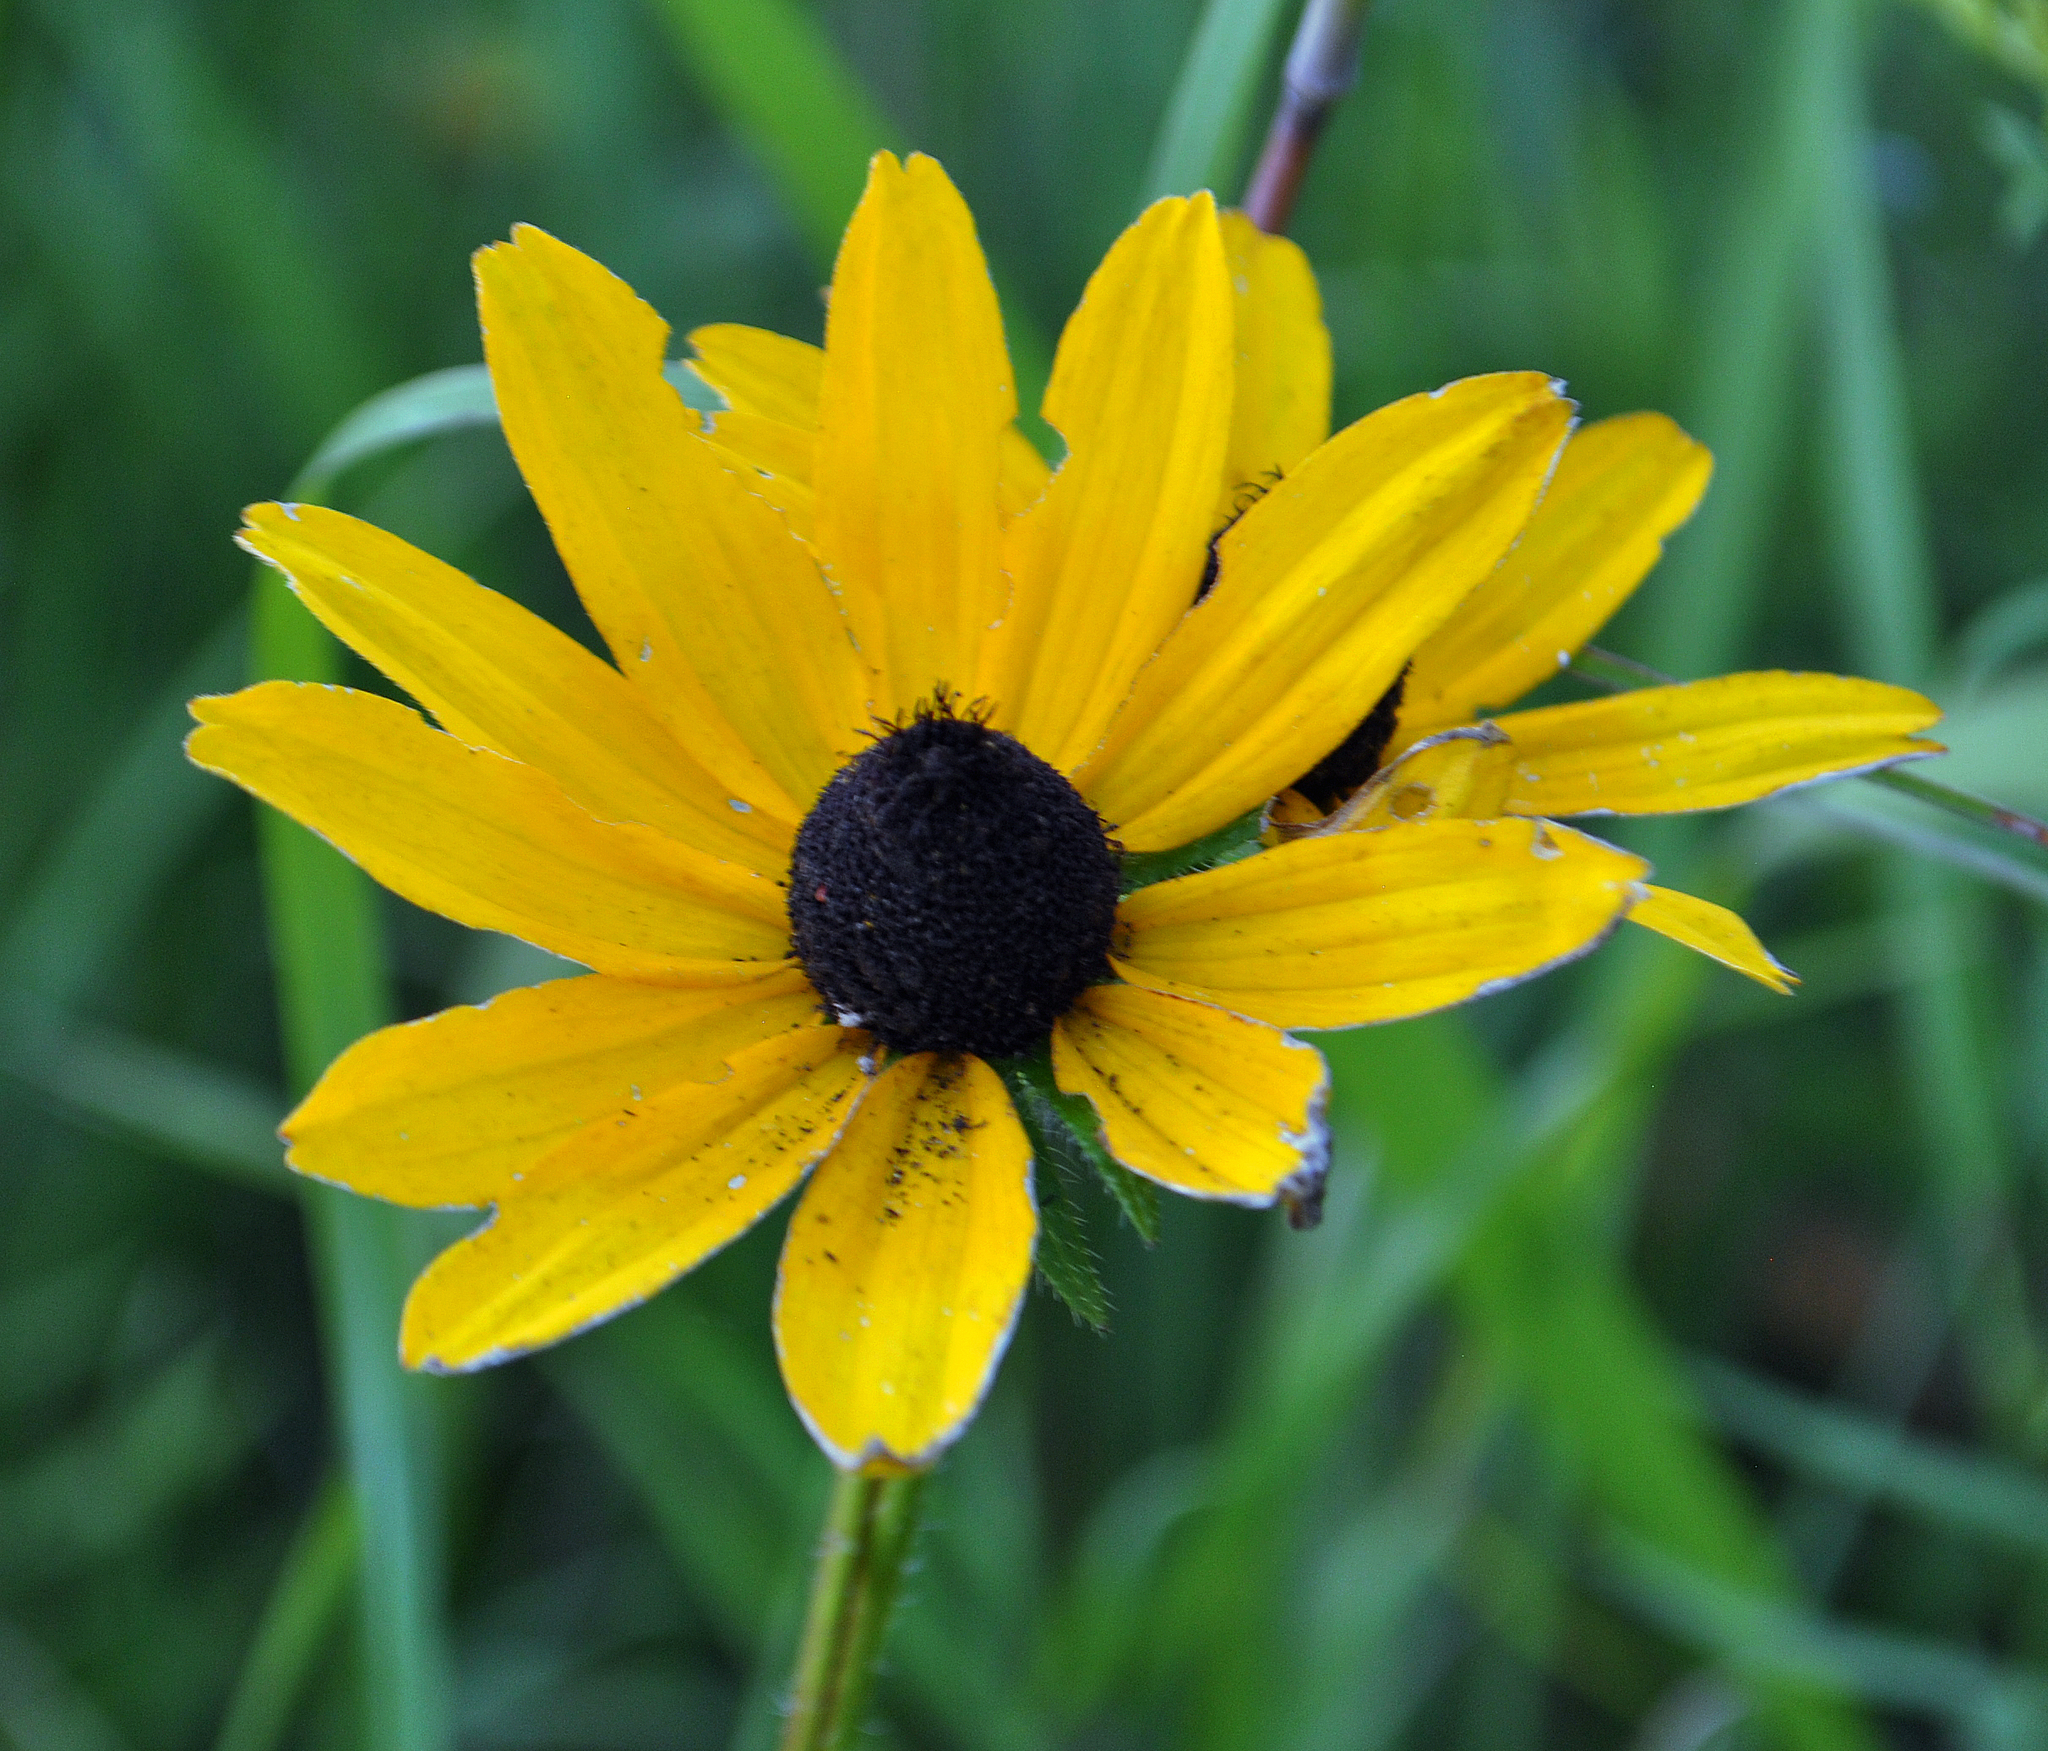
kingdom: Plantae
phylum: Tracheophyta
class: Magnoliopsida
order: Asterales
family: Asteraceae
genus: Rudbeckia
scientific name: Rudbeckia hirta
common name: Black-eyed-susan
